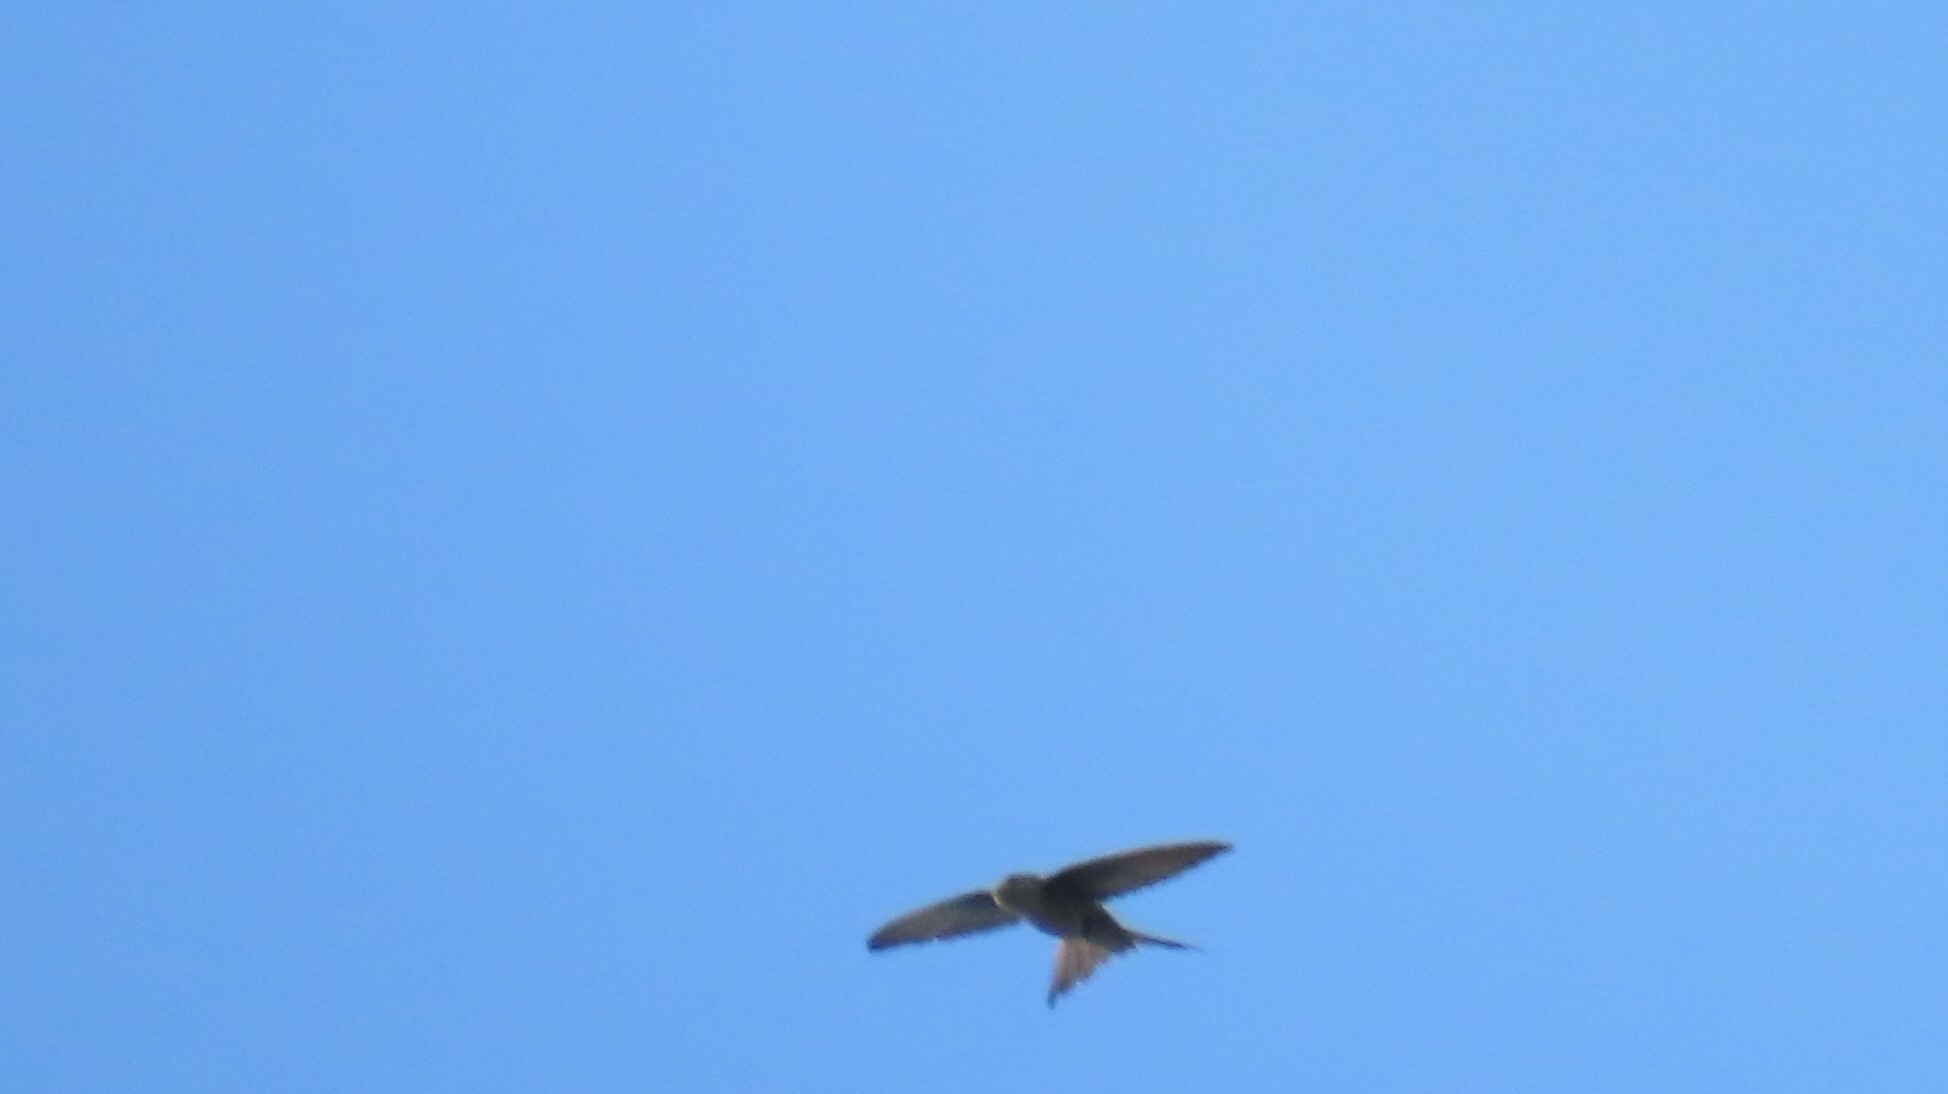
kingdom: Animalia
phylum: Chordata
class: Aves
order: Apodiformes
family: Apodidae
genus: Cypsiurus
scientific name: Cypsiurus balasiensis
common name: Asian palm swift
